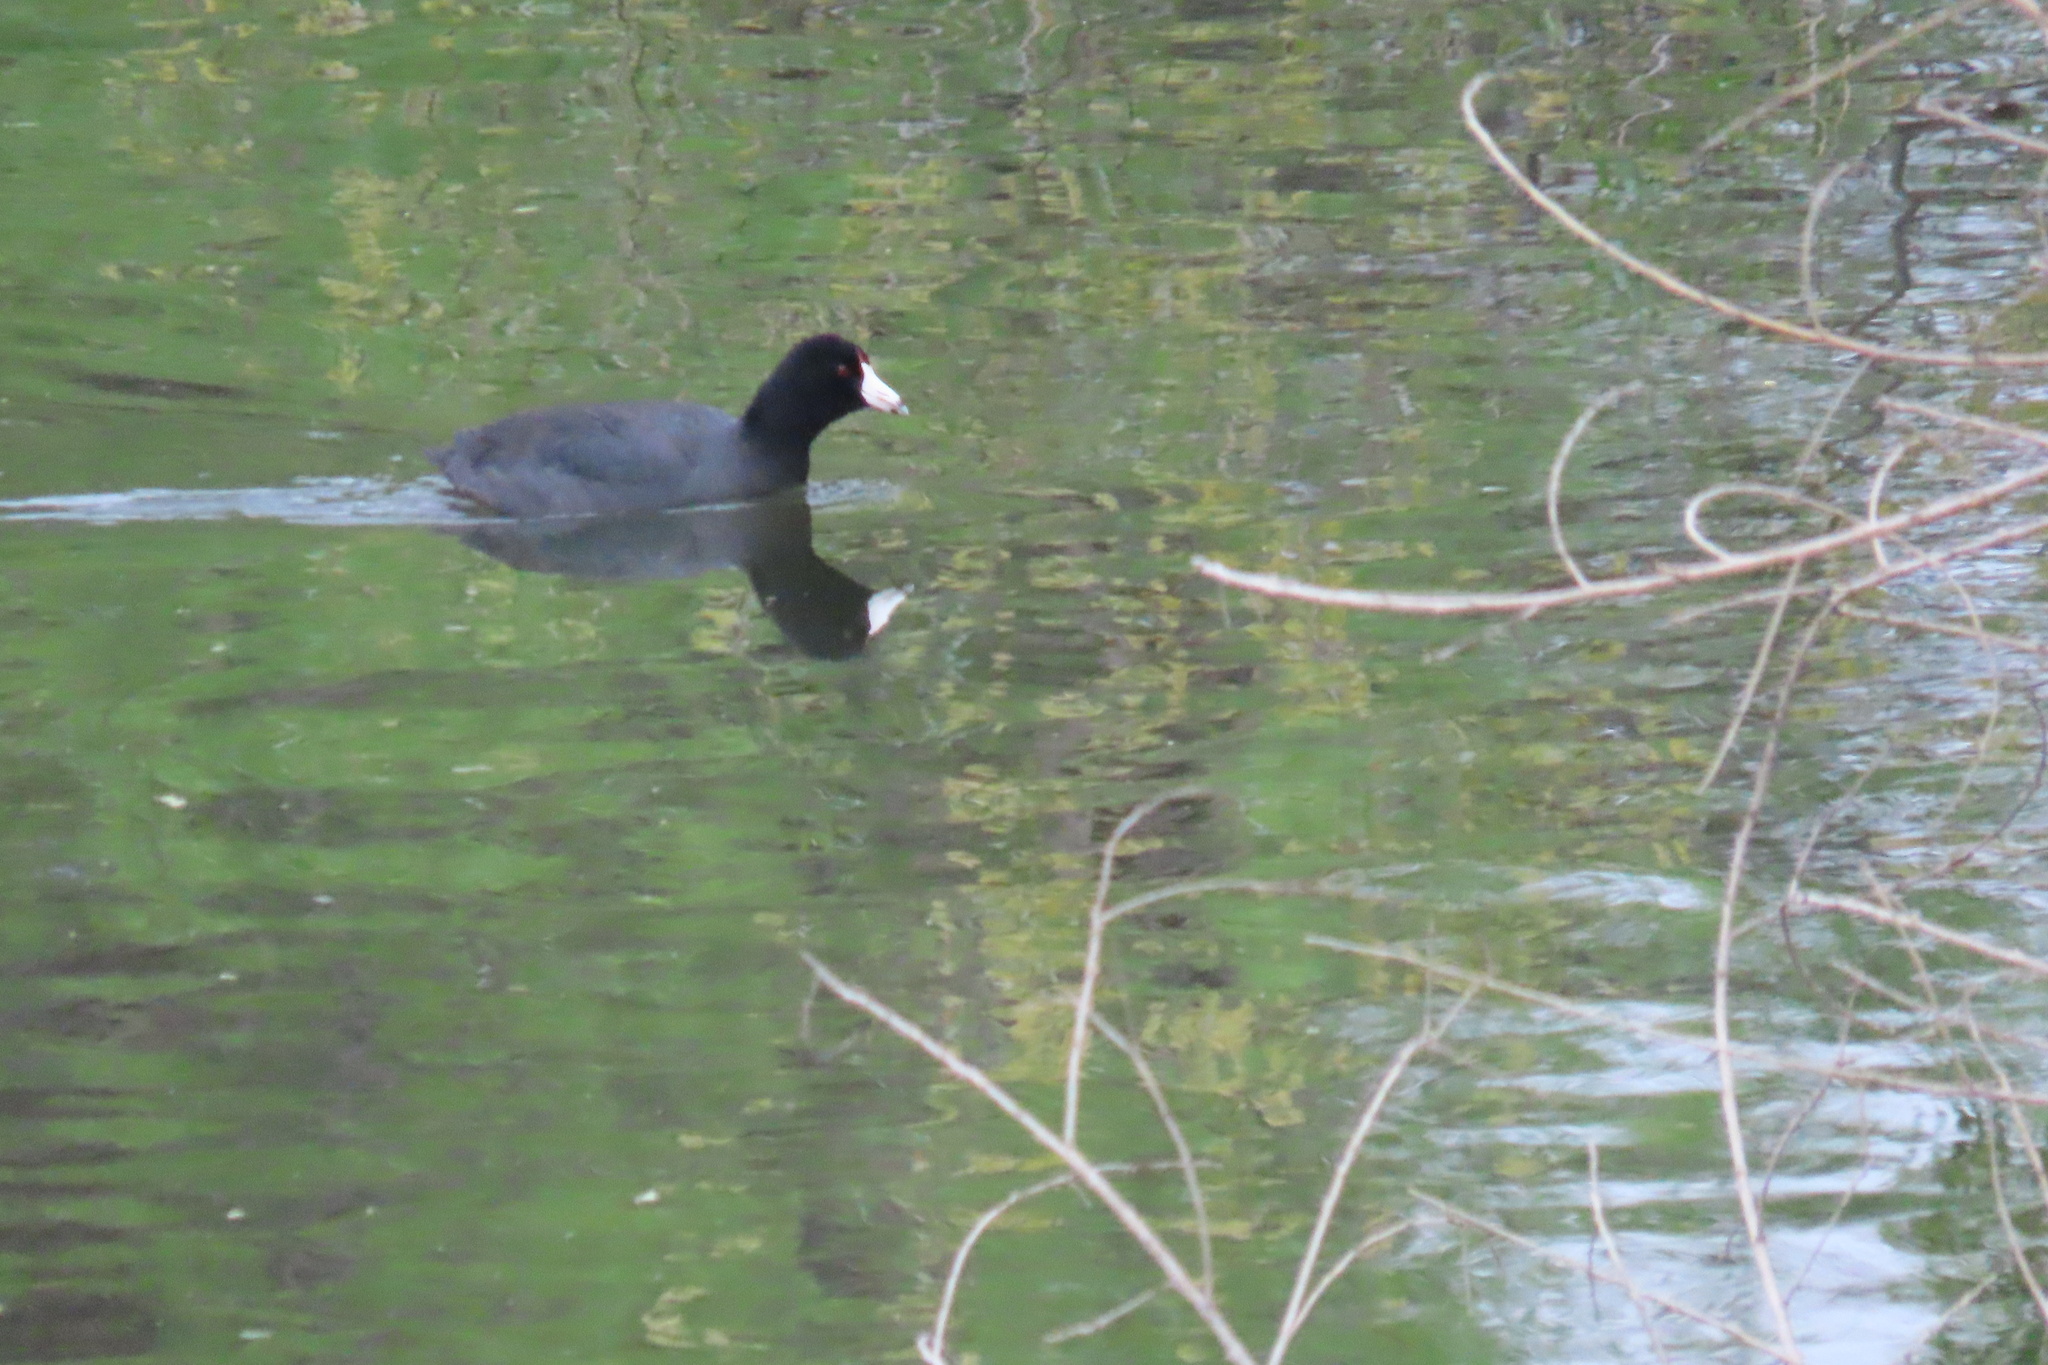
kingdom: Animalia
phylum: Chordata
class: Aves
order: Gruiformes
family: Rallidae
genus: Fulica
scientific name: Fulica americana
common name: American coot
